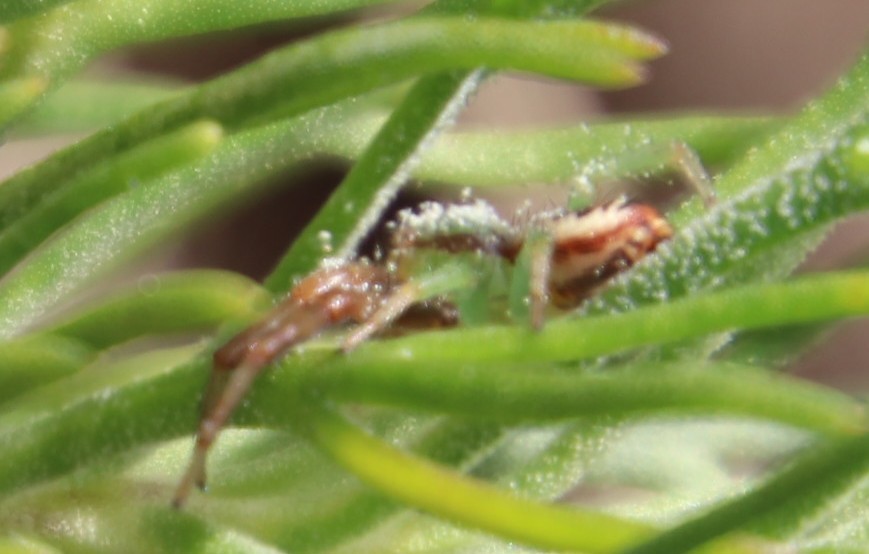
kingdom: Animalia
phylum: Arthropoda
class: Arachnida
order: Araneae
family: Thomisidae
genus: Synema
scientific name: Synema imitatrix
